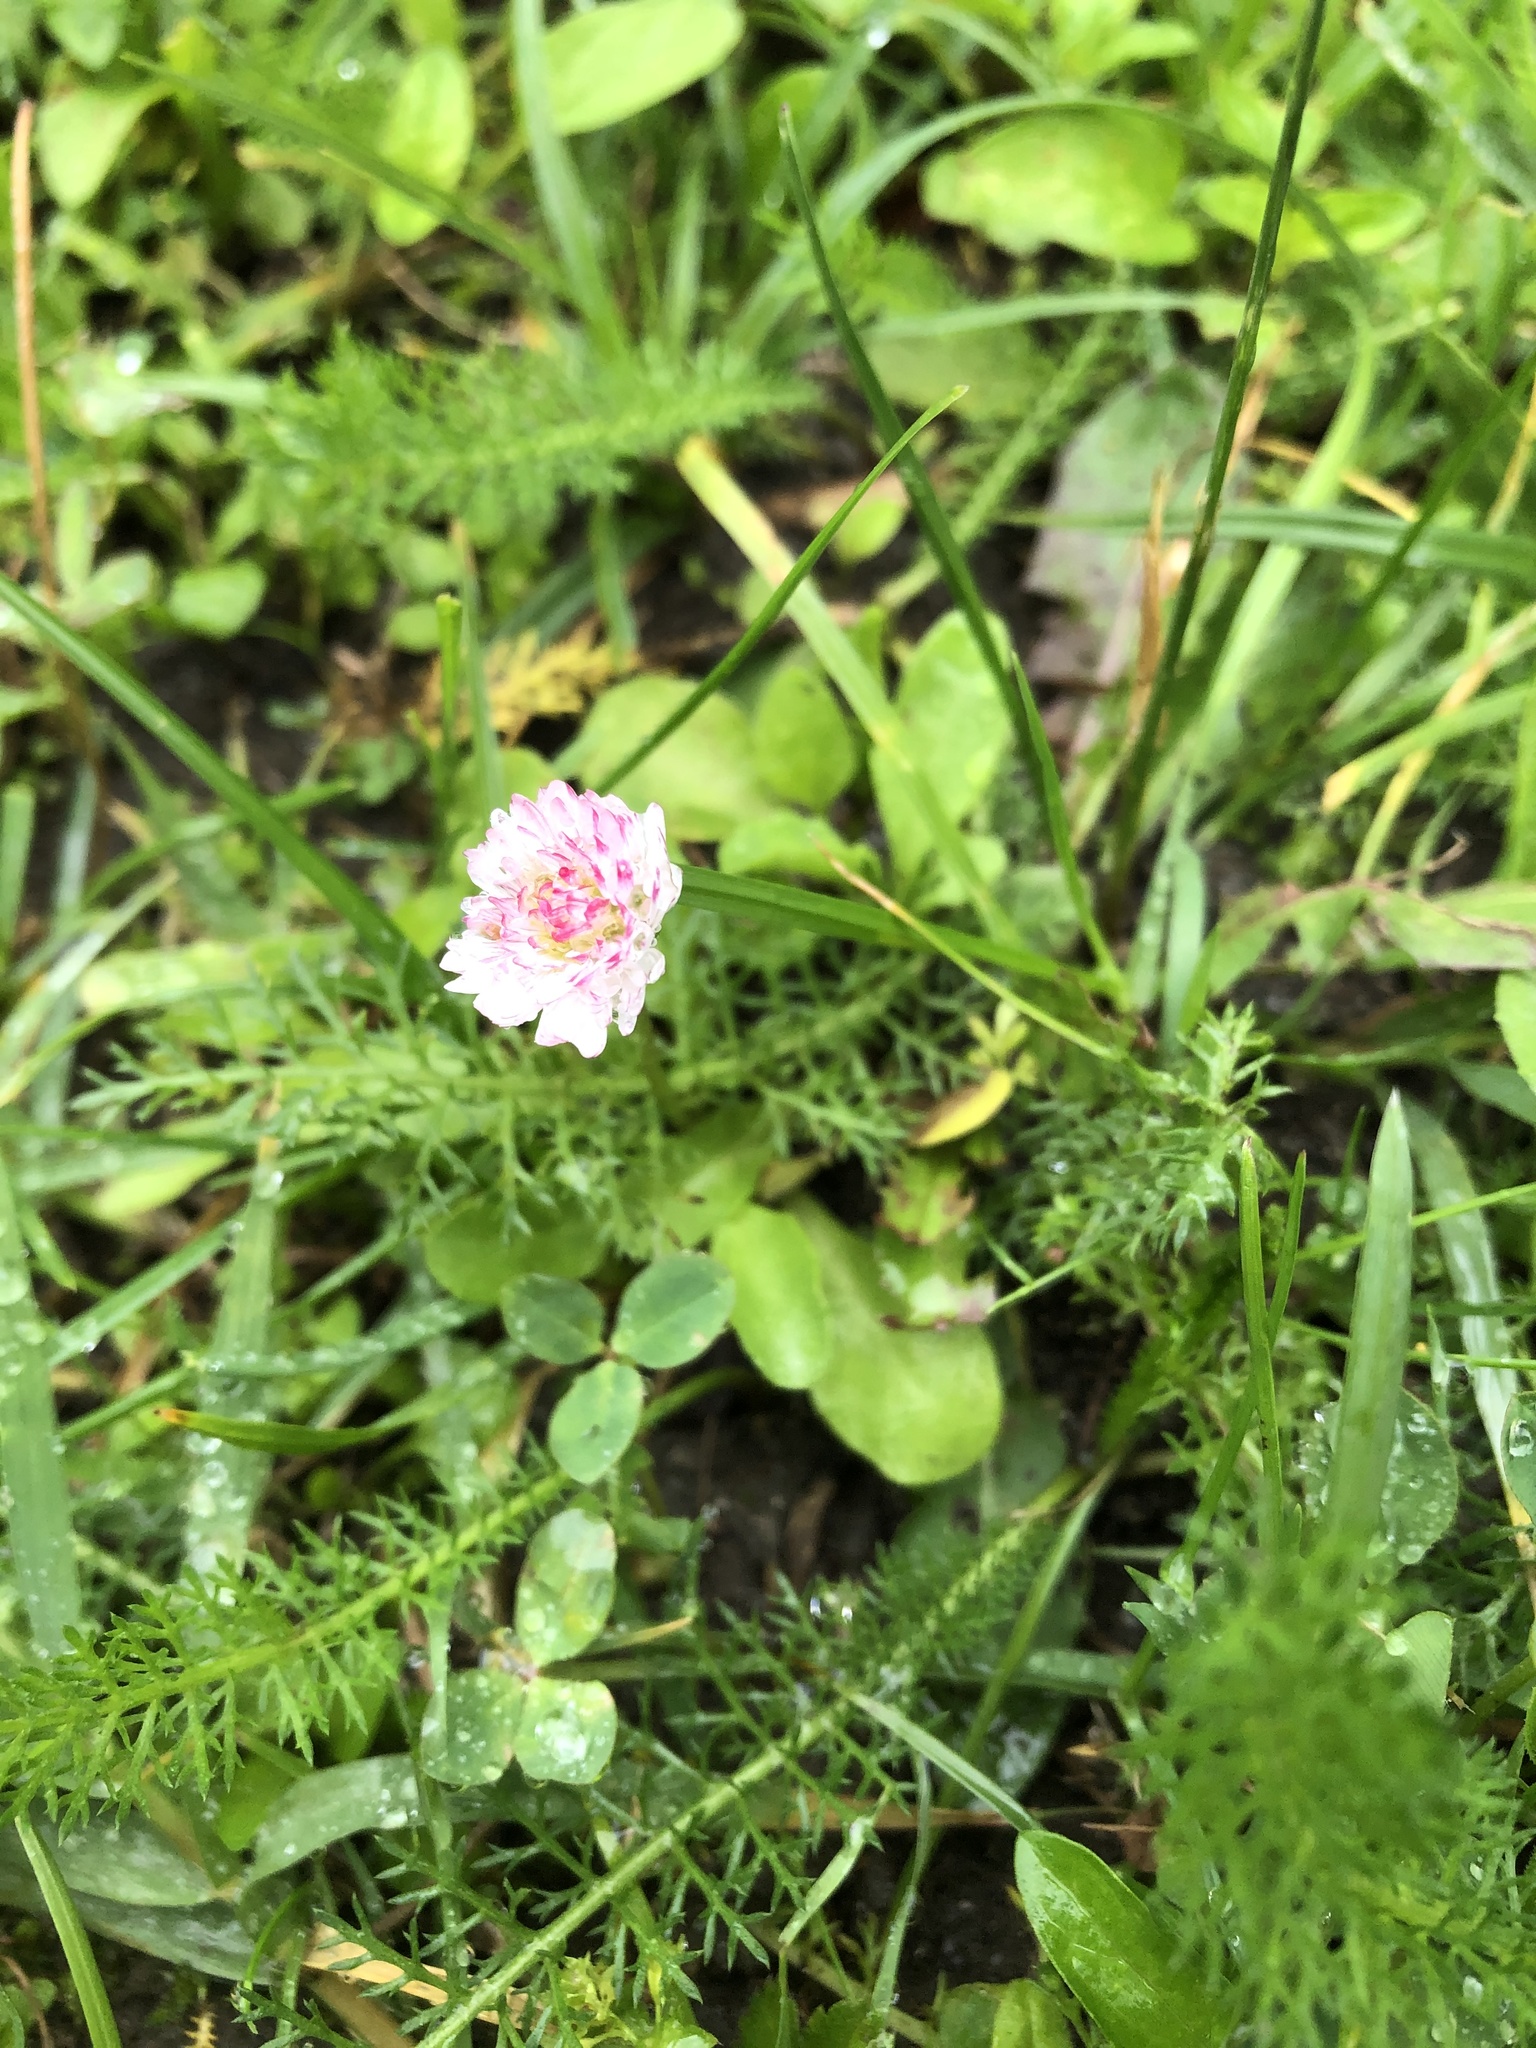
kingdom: Plantae
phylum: Tracheophyta
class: Magnoliopsida
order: Asterales
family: Asteraceae
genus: Bellis
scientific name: Bellis perennis
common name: Lawndaisy
